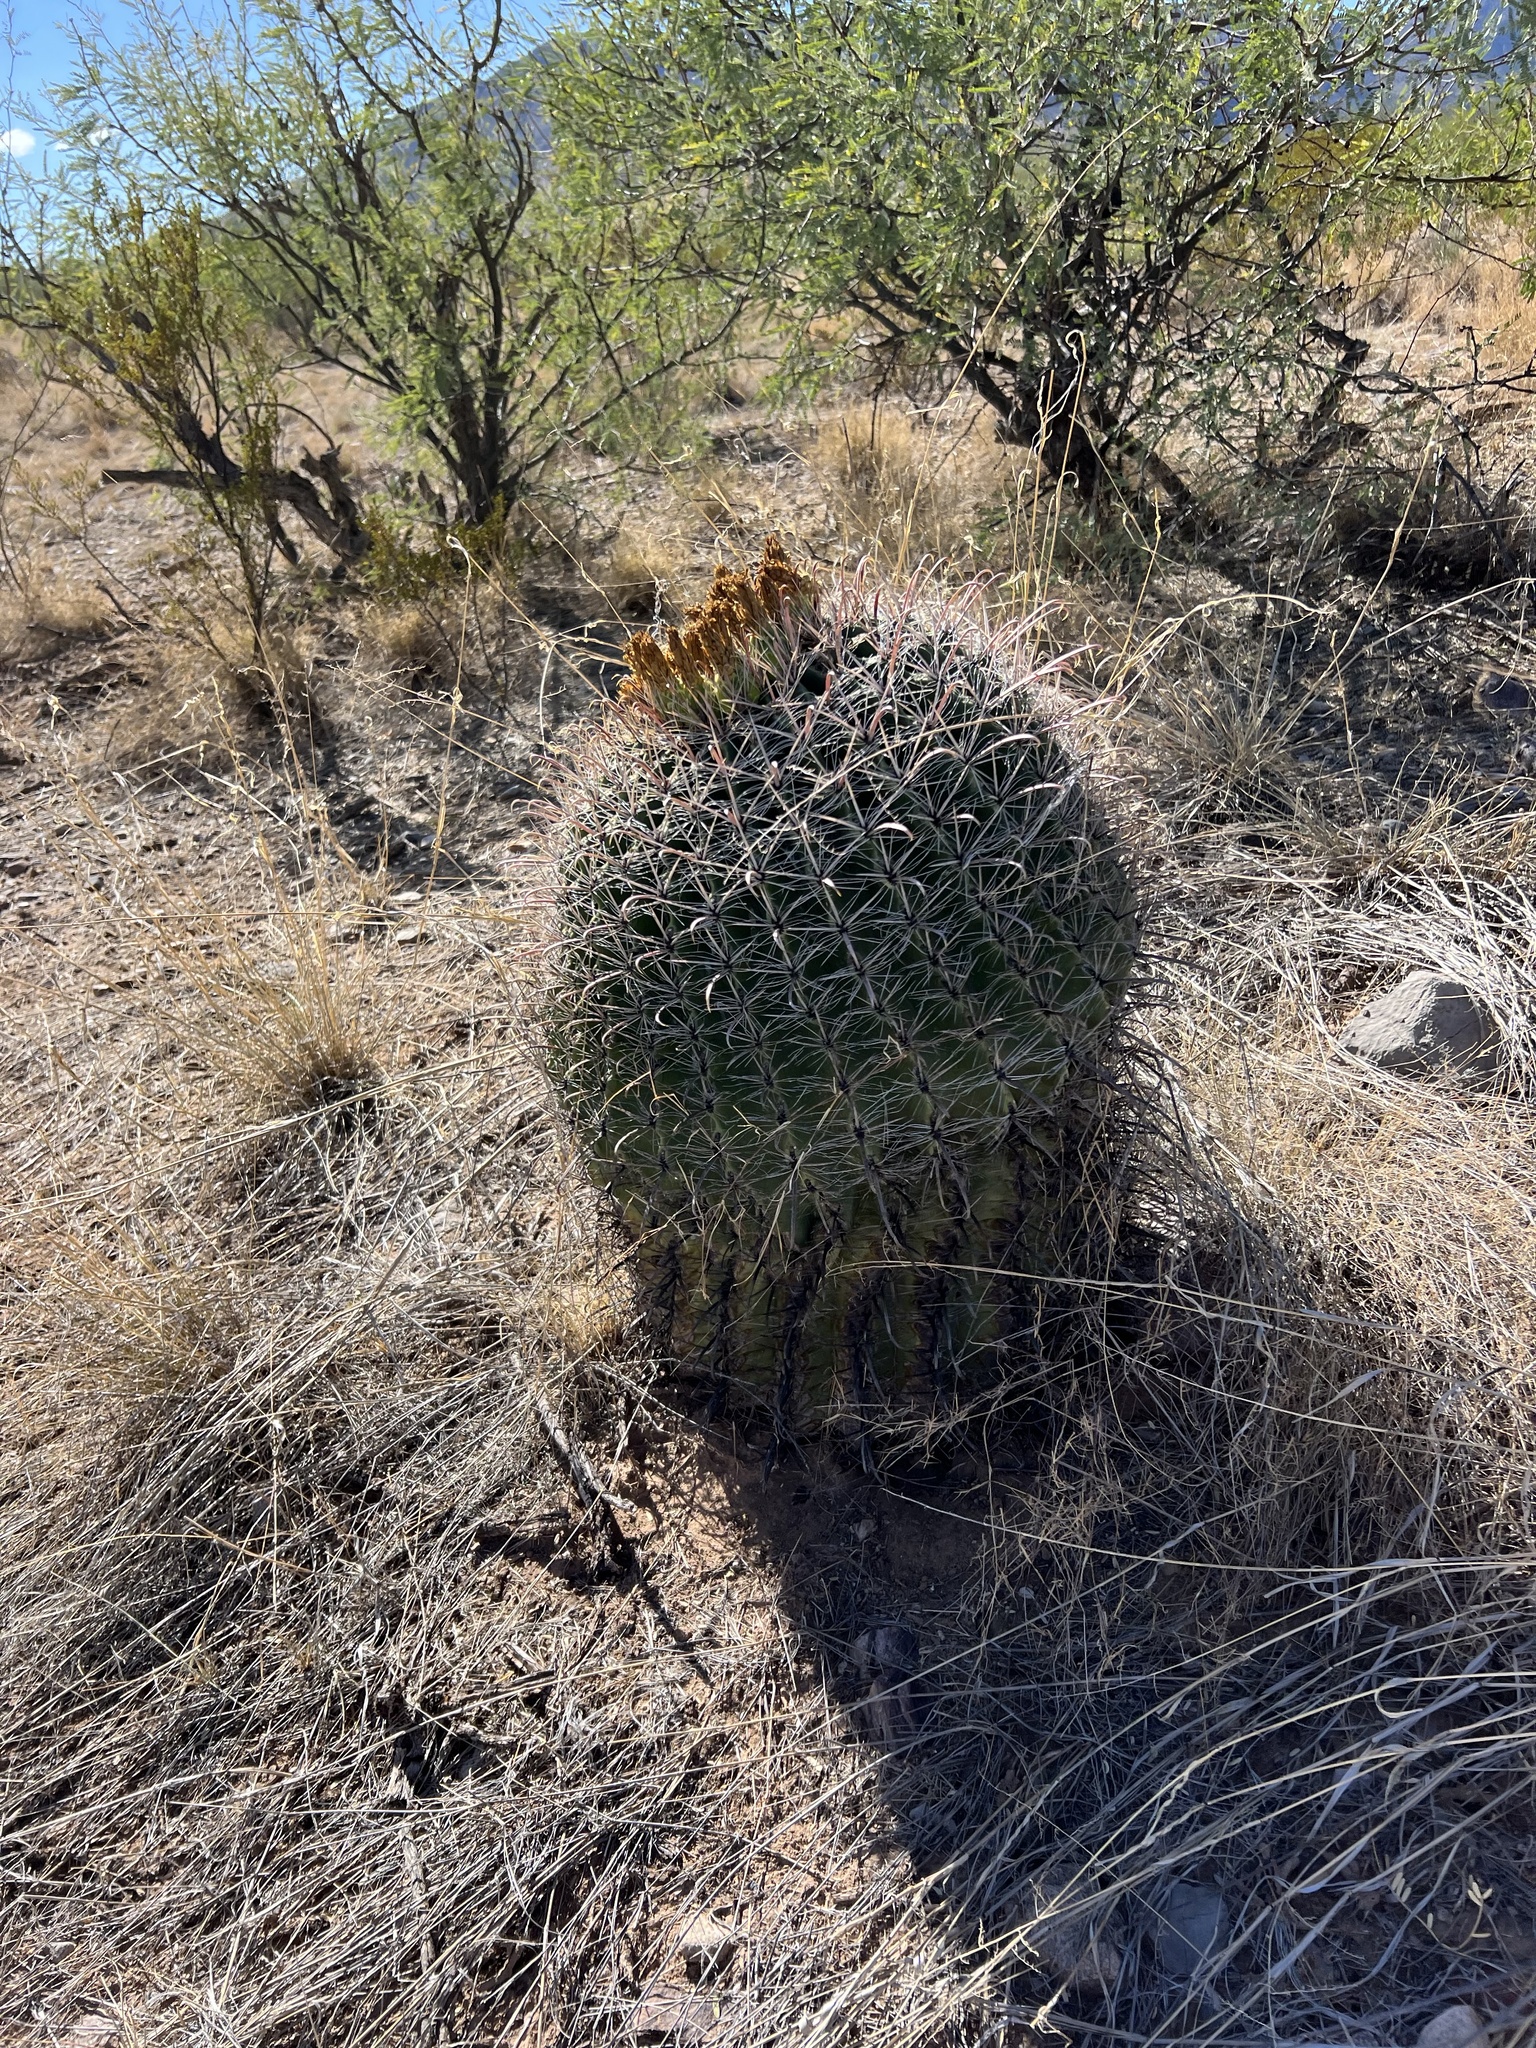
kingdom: Plantae
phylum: Tracheophyta
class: Magnoliopsida
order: Caryophyllales
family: Cactaceae
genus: Ferocactus
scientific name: Ferocactus wislizeni
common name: Candy barrel cactus
